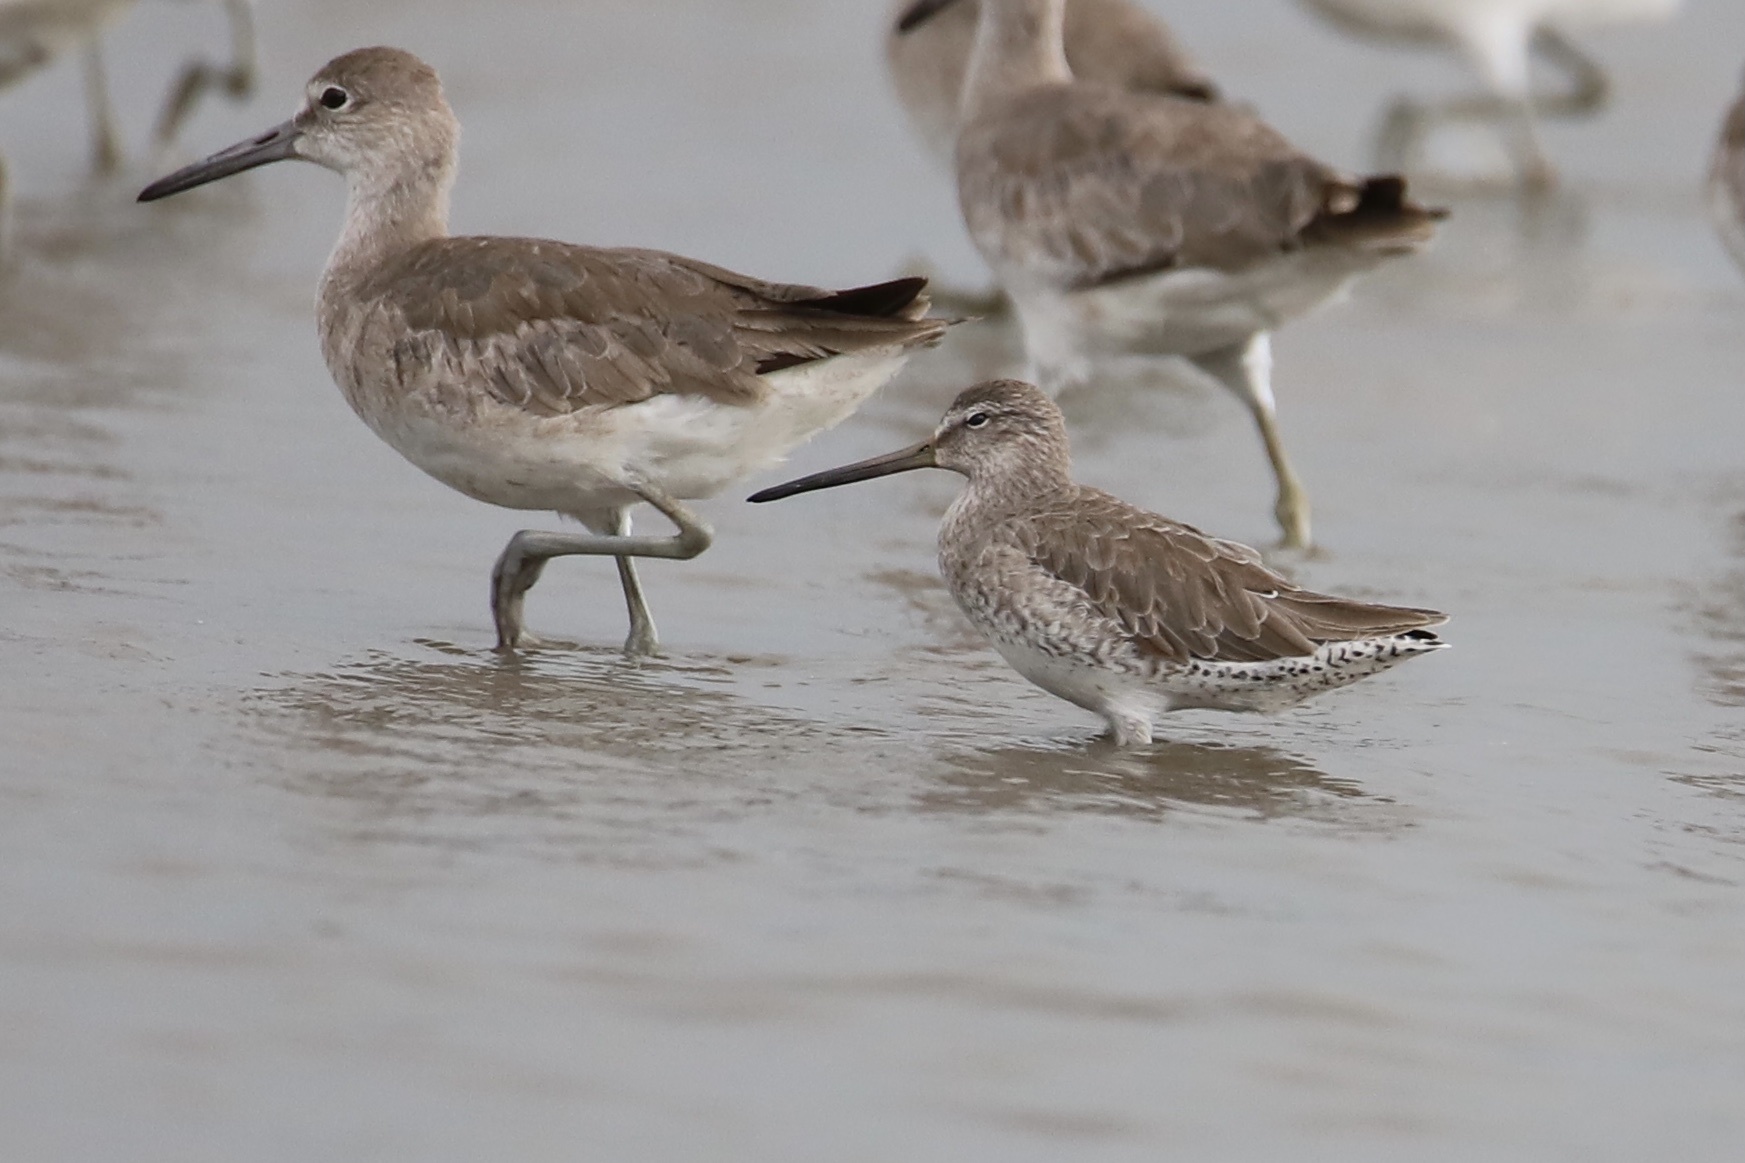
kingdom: Animalia
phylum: Chordata
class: Aves
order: Charadriiformes
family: Scolopacidae
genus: Limnodromus
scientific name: Limnodromus griseus
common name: Short-billed dowitcher
